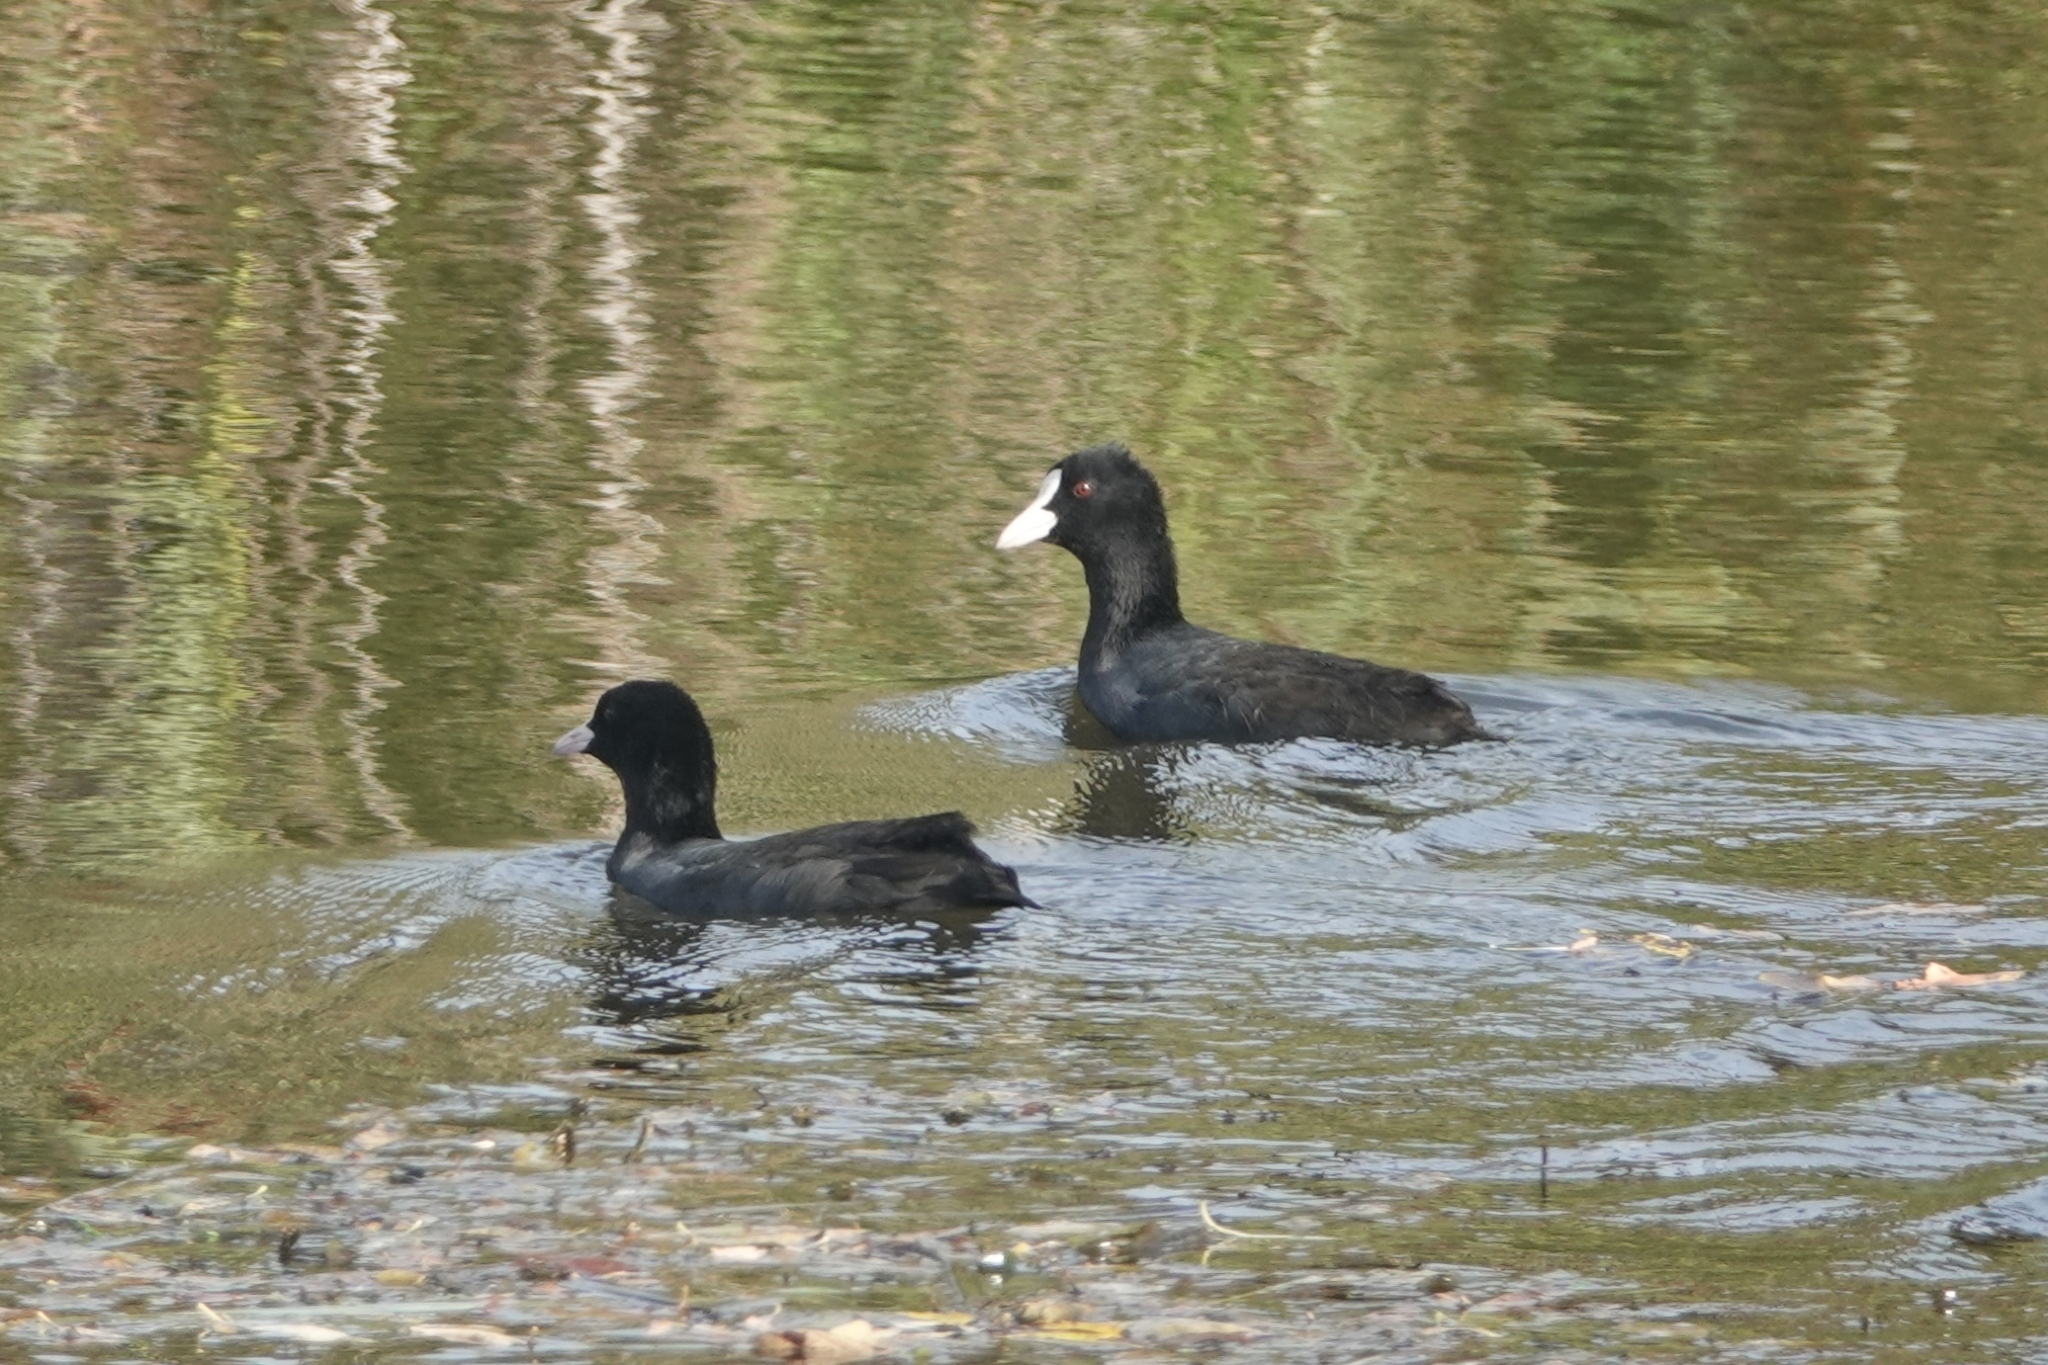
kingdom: Animalia
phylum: Chordata
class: Aves
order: Gruiformes
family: Rallidae
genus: Fulica
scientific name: Fulica atra
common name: Eurasian coot
